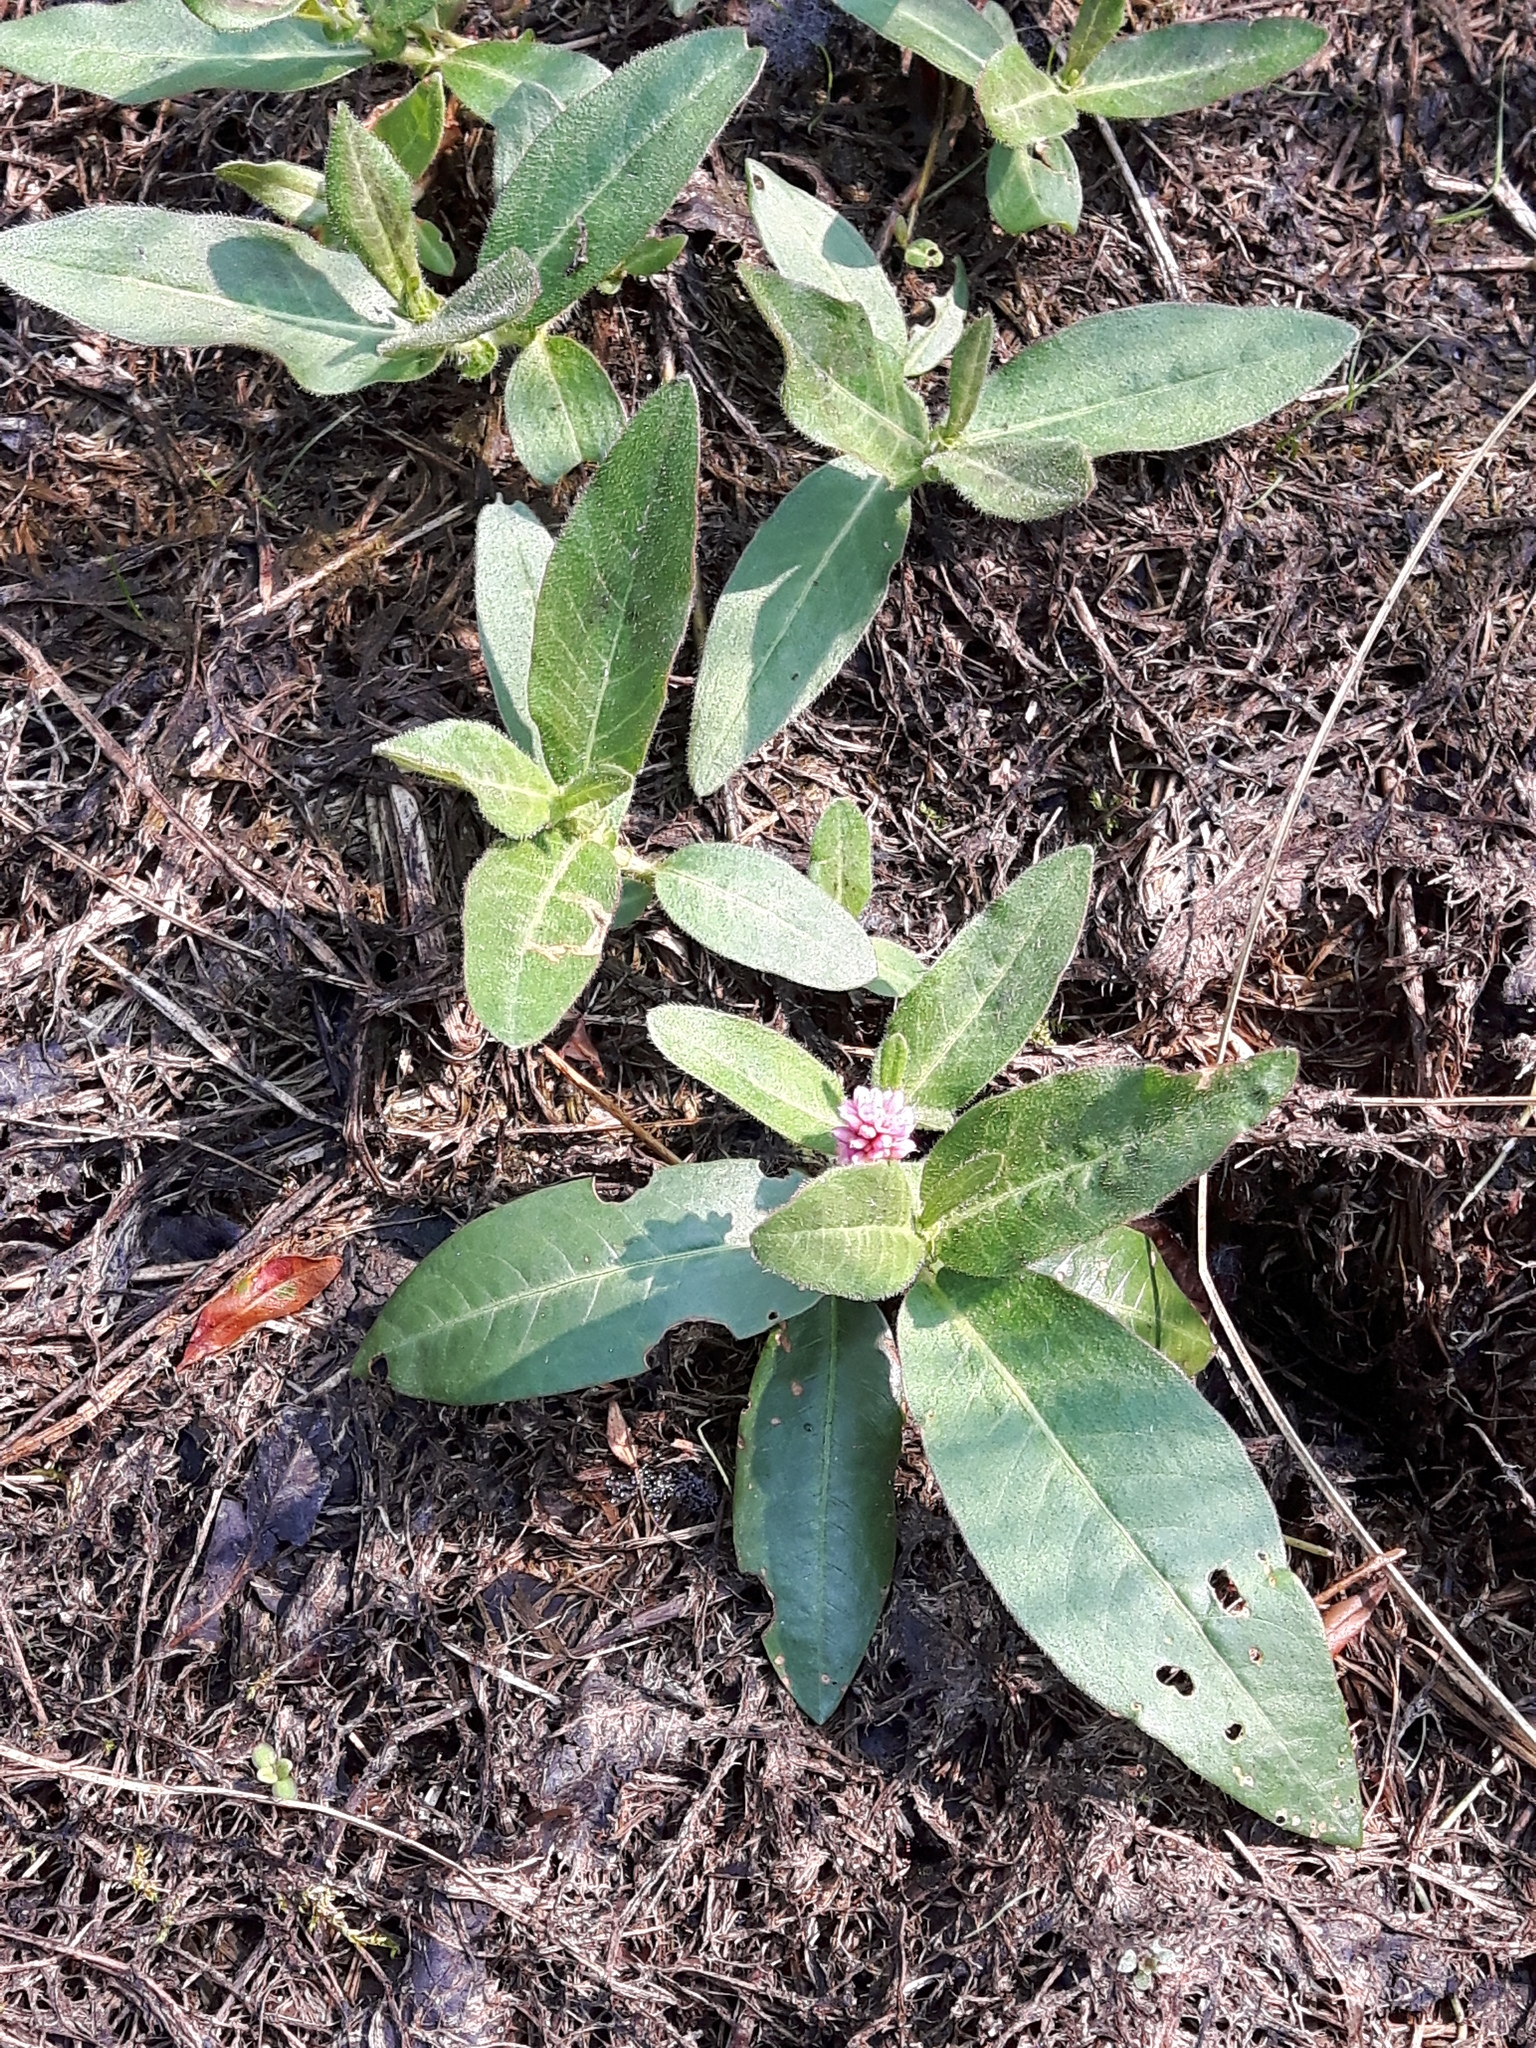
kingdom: Plantae
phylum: Tracheophyta
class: Magnoliopsida
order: Caryophyllales
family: Polygonaceae
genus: Persicaria
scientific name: Persicaria amphibia
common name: Amphibious bistort
